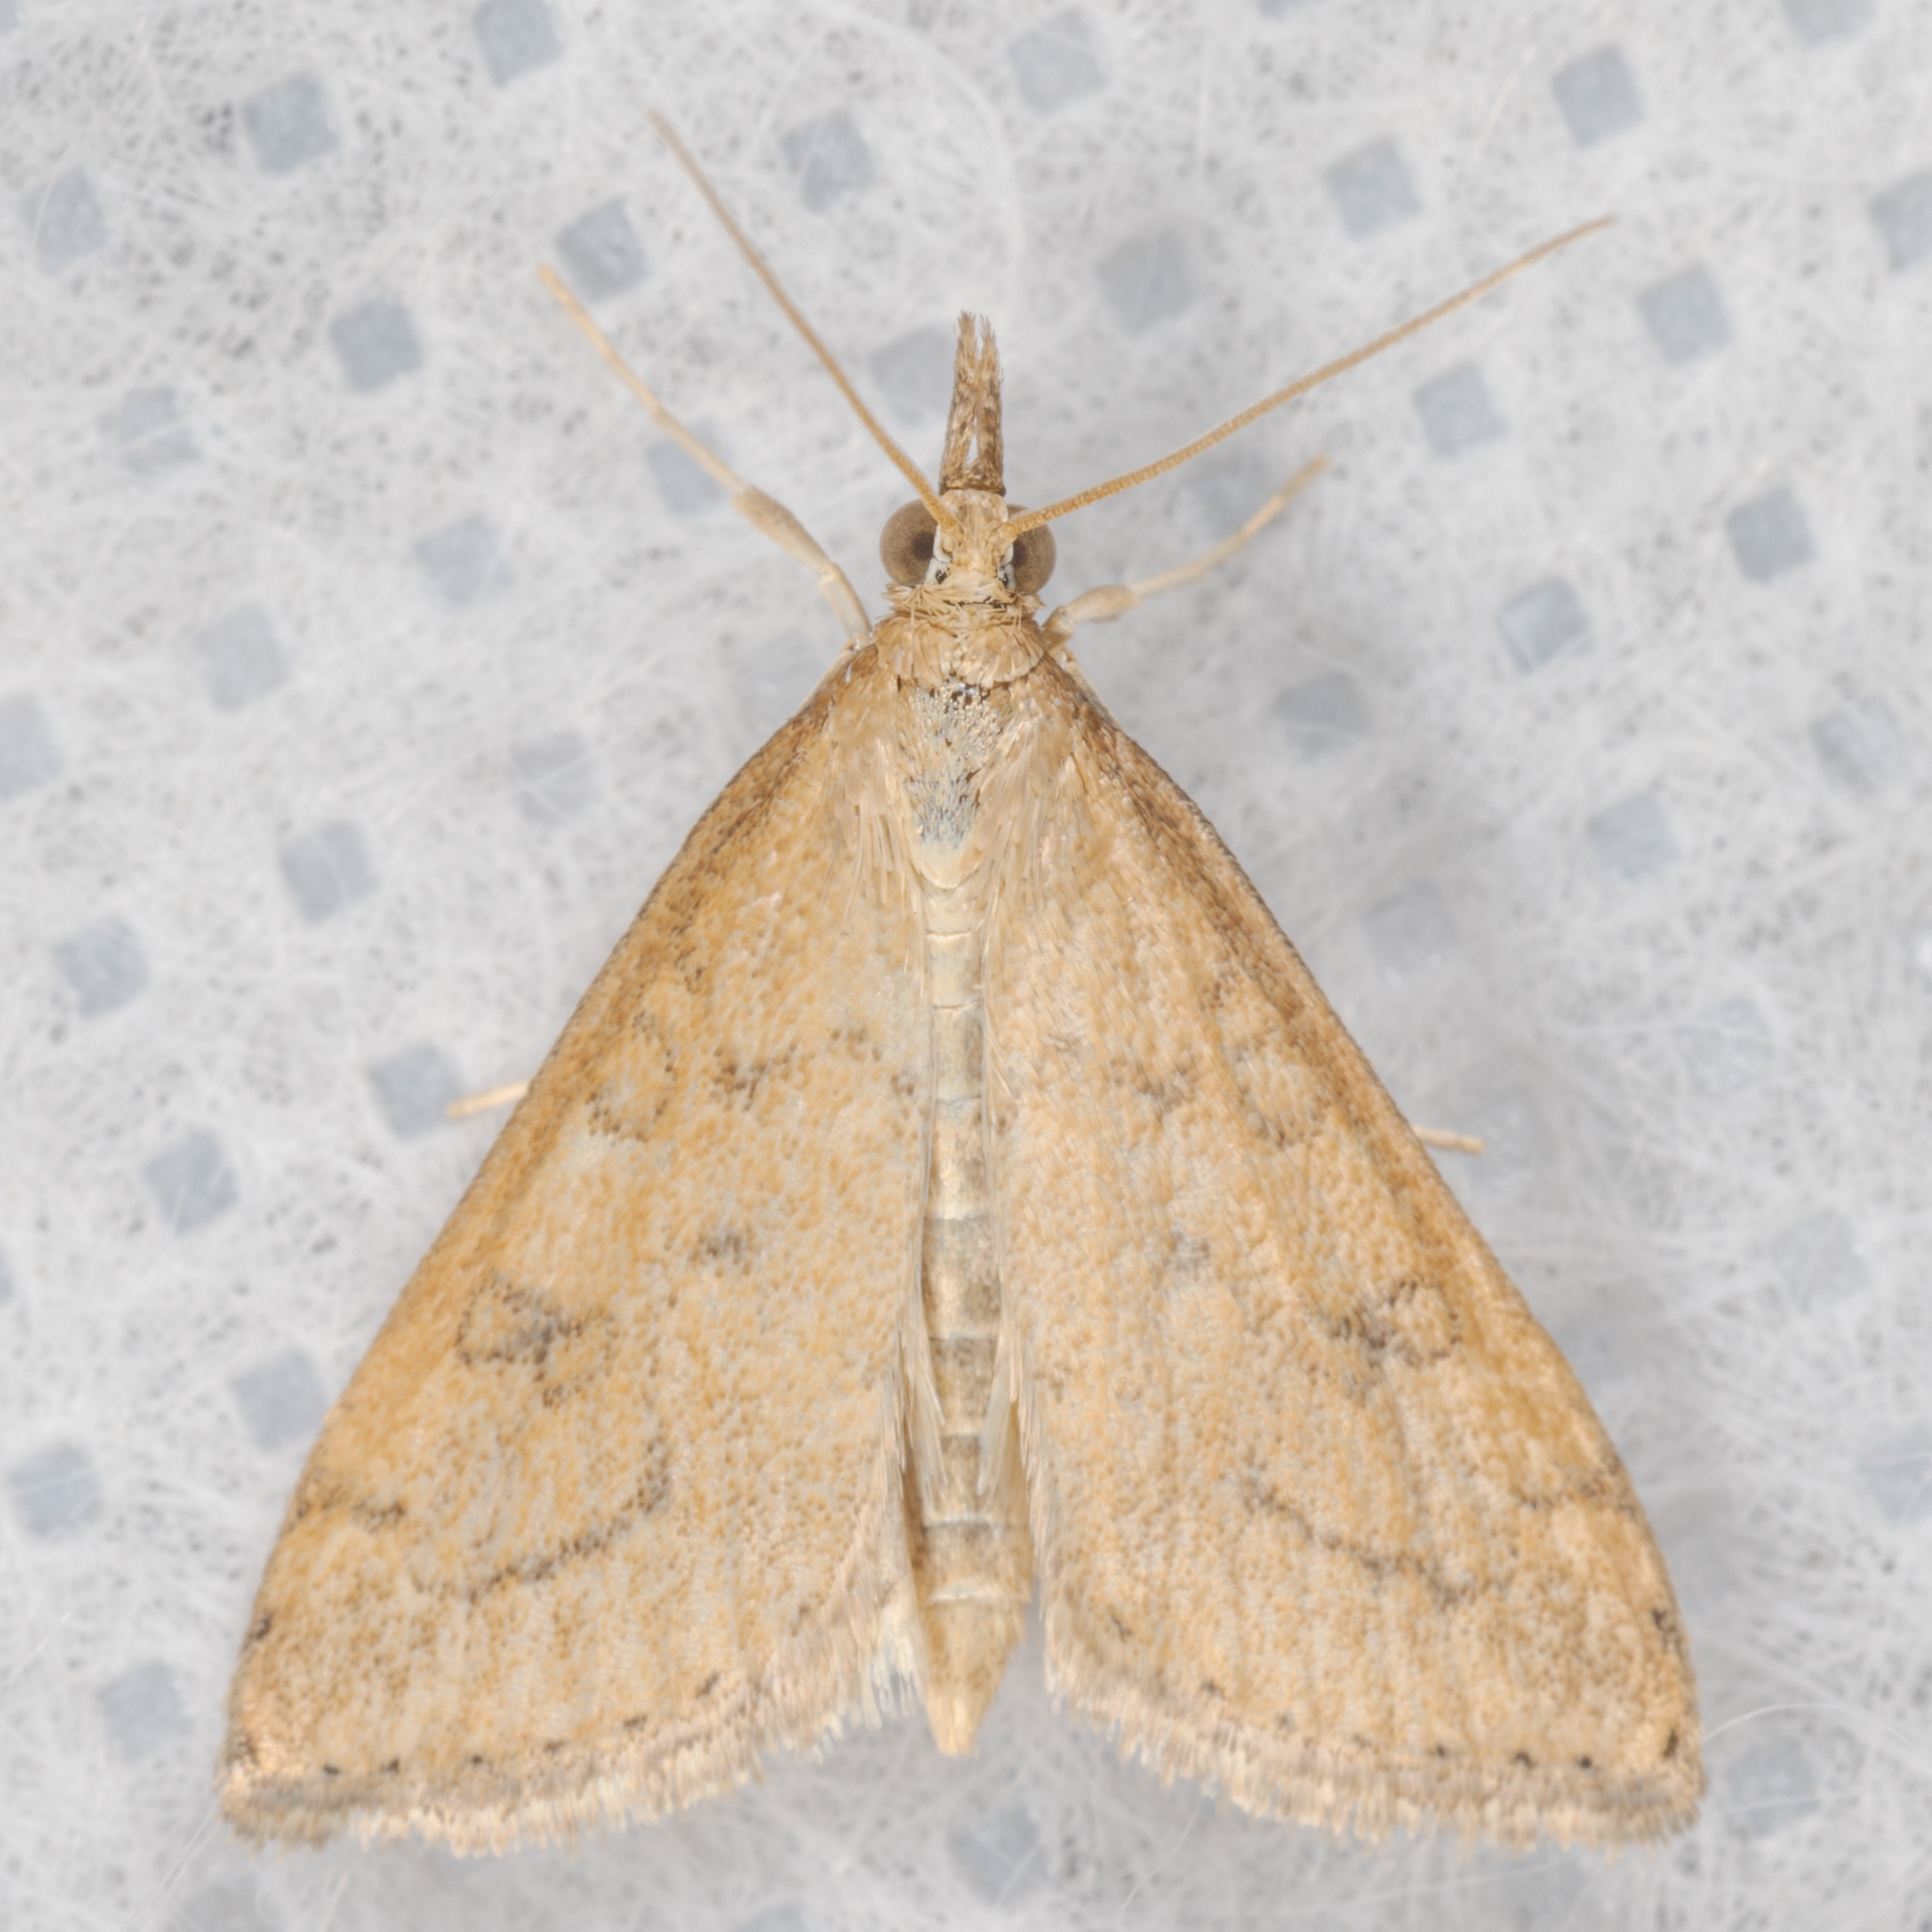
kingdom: Animalia
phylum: Arthropoda
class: Insecta
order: Lepidoptera
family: Crambidae
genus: Udea
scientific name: Udea rubigalis
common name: Celery leaftier moth
